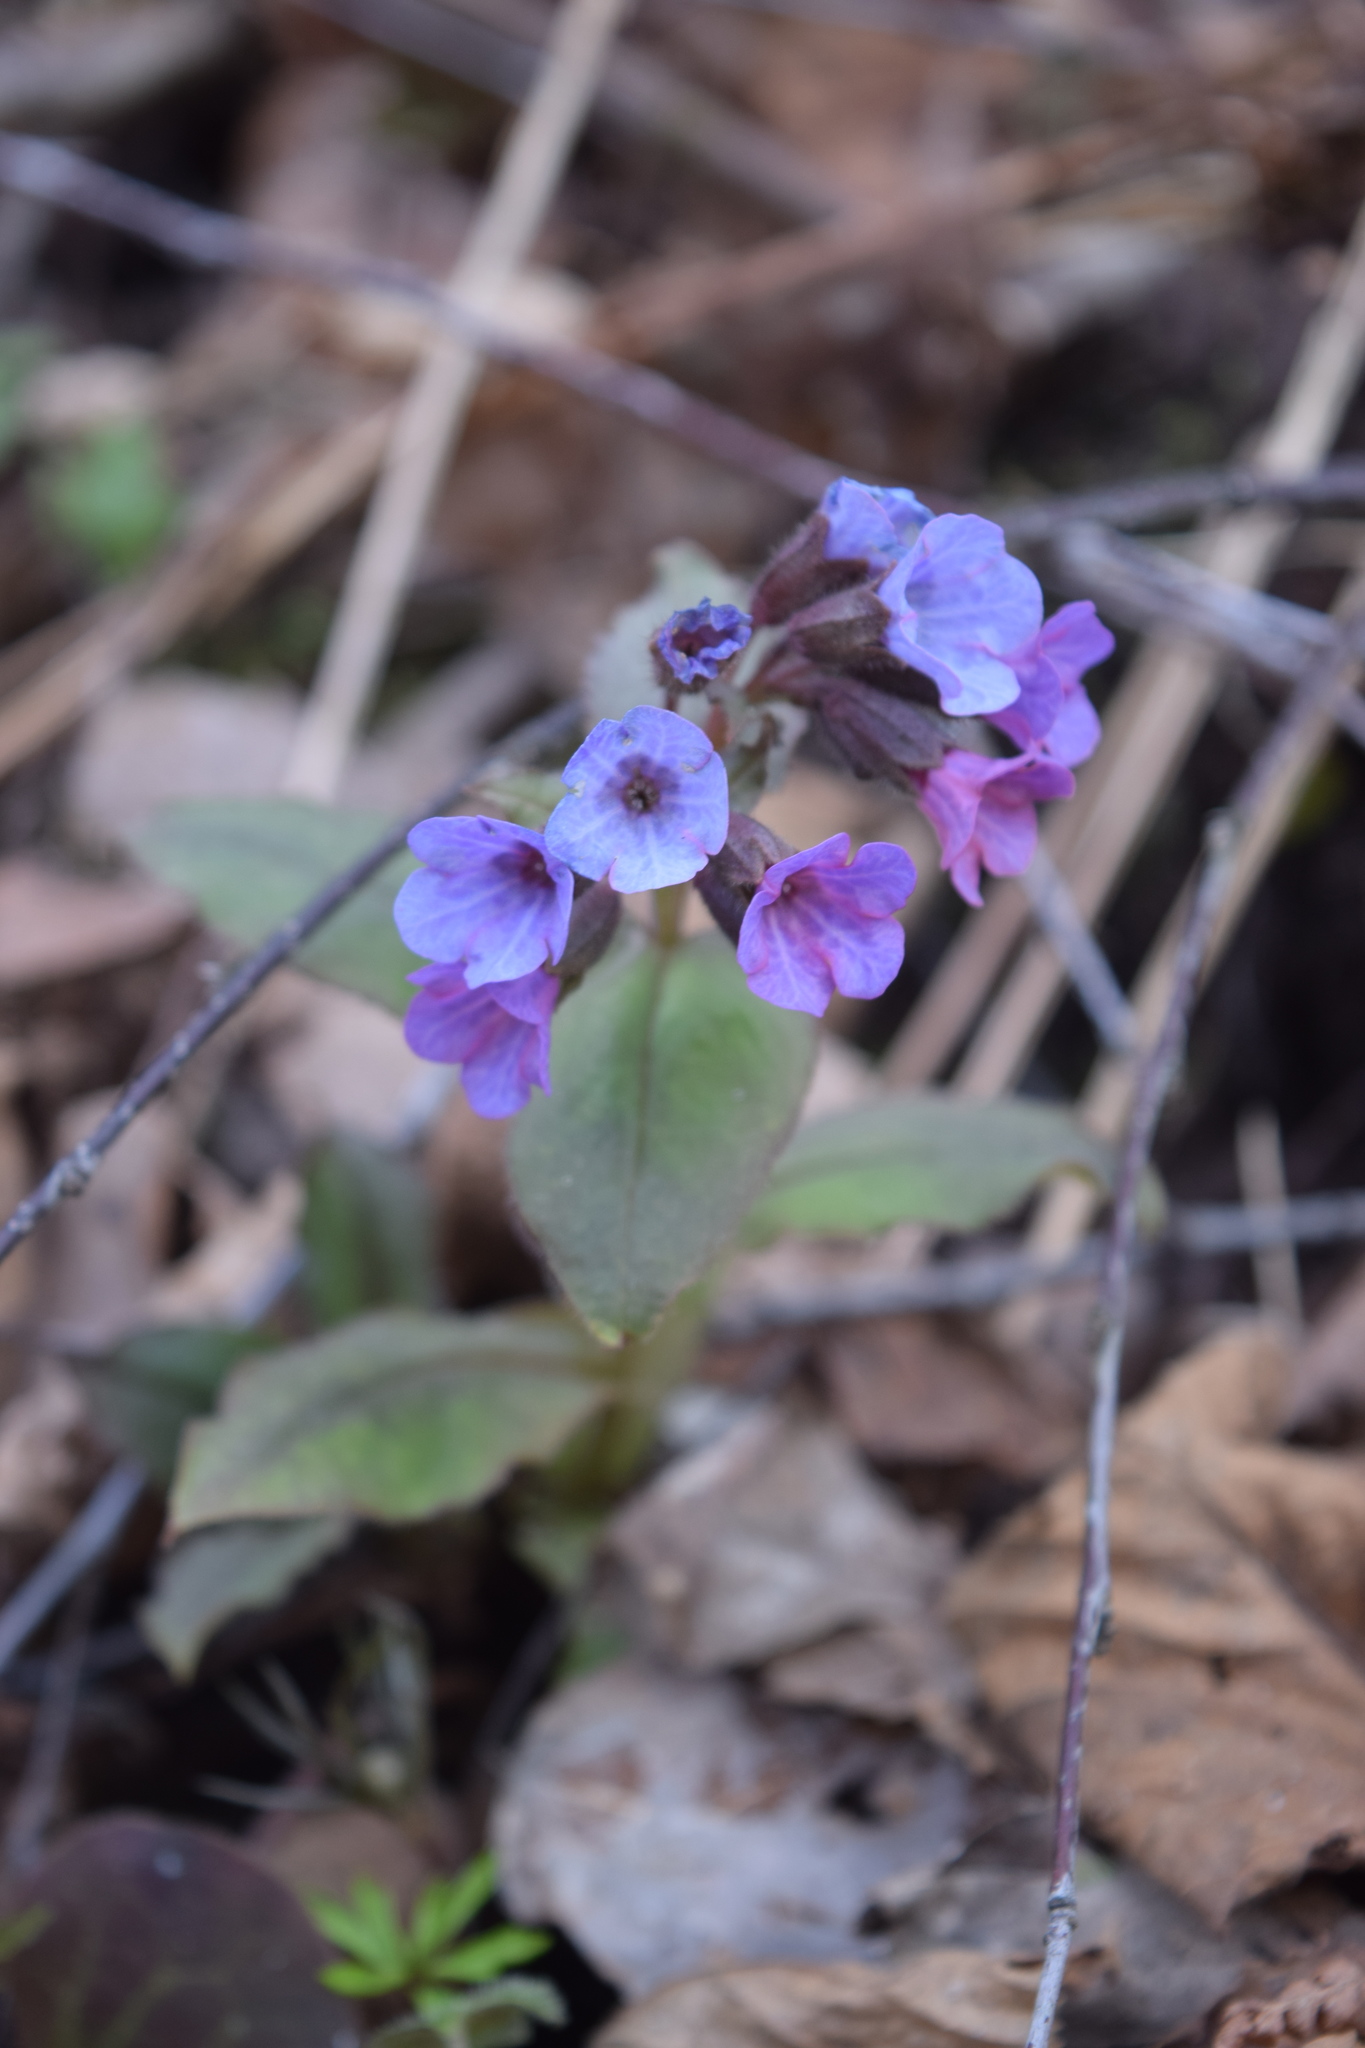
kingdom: Plantae
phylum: Tracheophyta
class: Magnoliopsida
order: Boraginales
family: Boraginaceae
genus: Pulmonaria
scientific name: Pulmonaria obscura
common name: Suffolk lungwort
